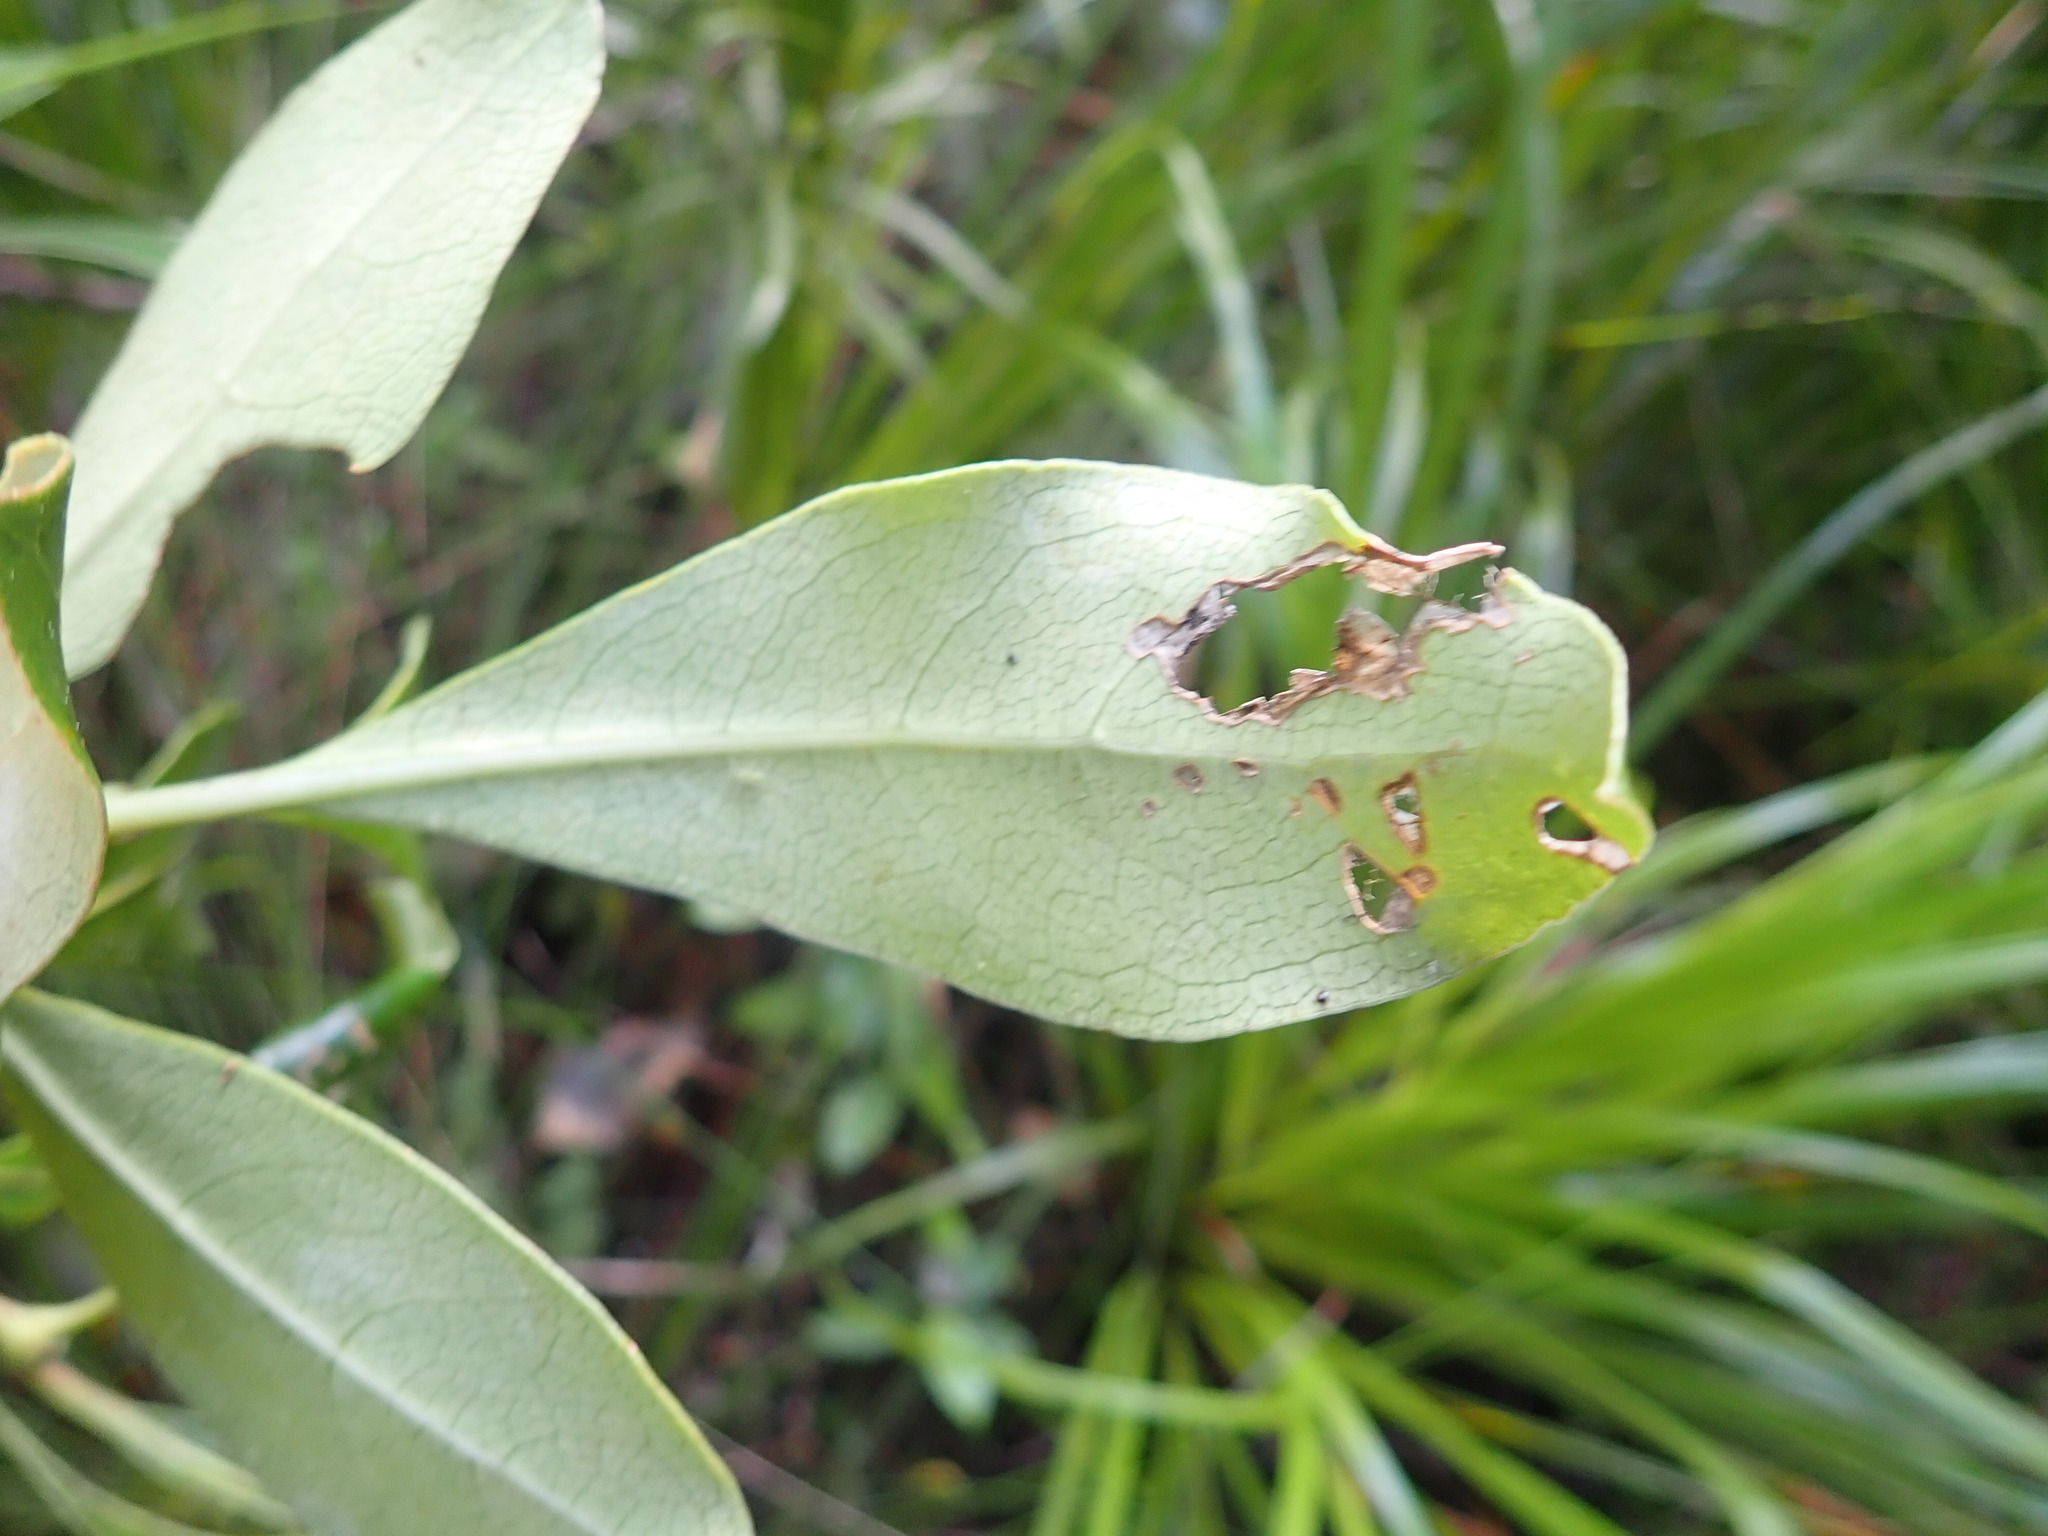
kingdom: Plantae
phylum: Tracheophyta
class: Magnoliopsida
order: Gentianales
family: Rubiaceae
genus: Coprosma
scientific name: Coprosma lucida
